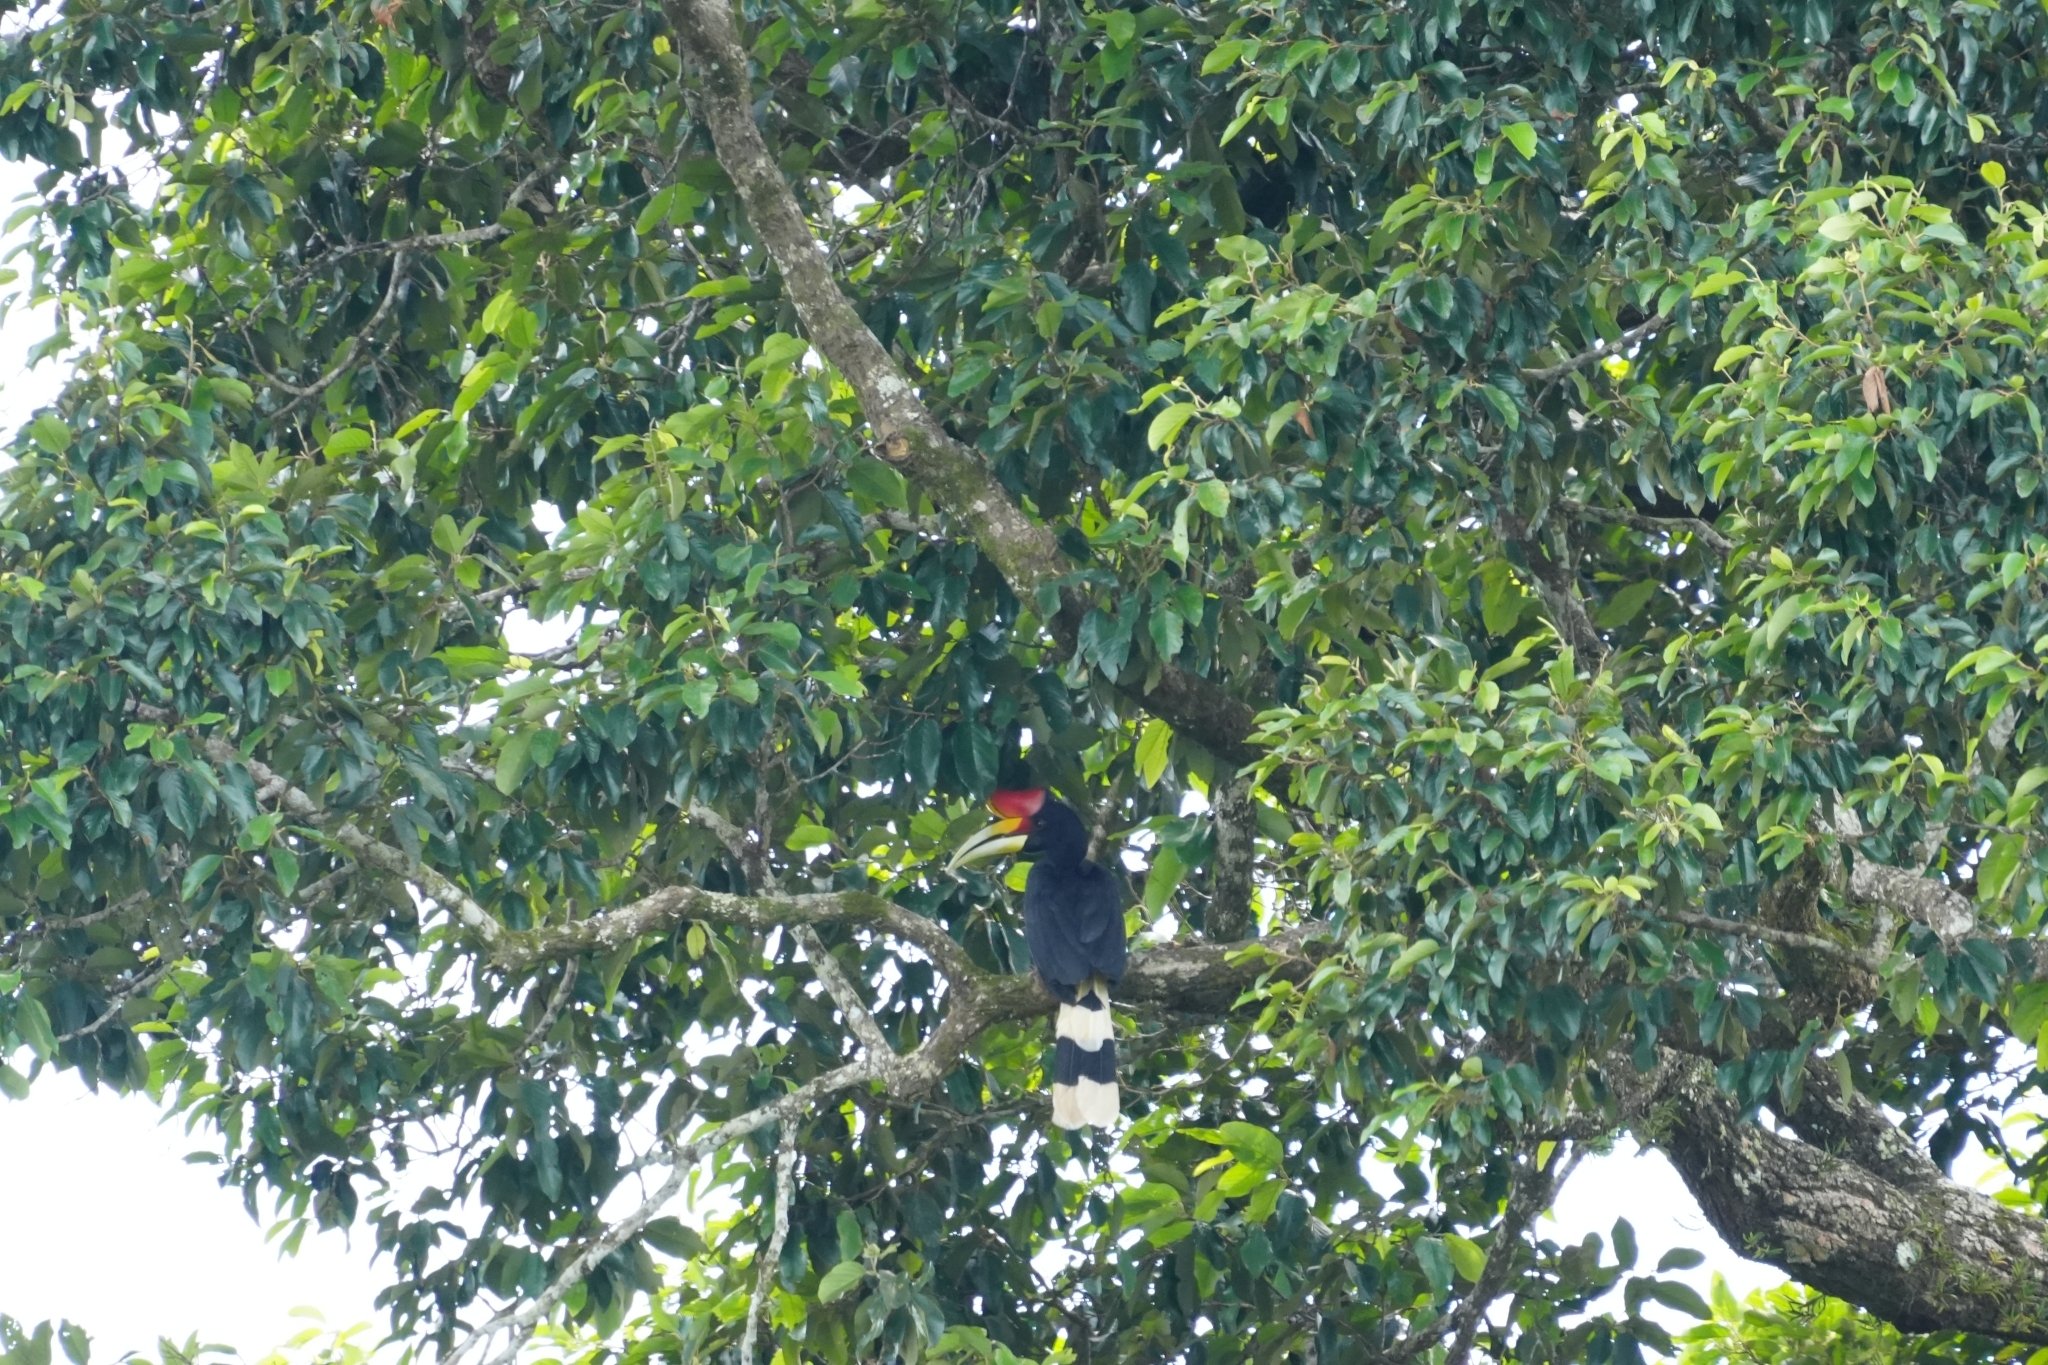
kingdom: Animalia
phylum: Chordata
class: Aves
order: Bucerotiformes
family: Bucerotidae
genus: Buceros
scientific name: Buceros rhinoceros
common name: Rhinoceros hornbill
